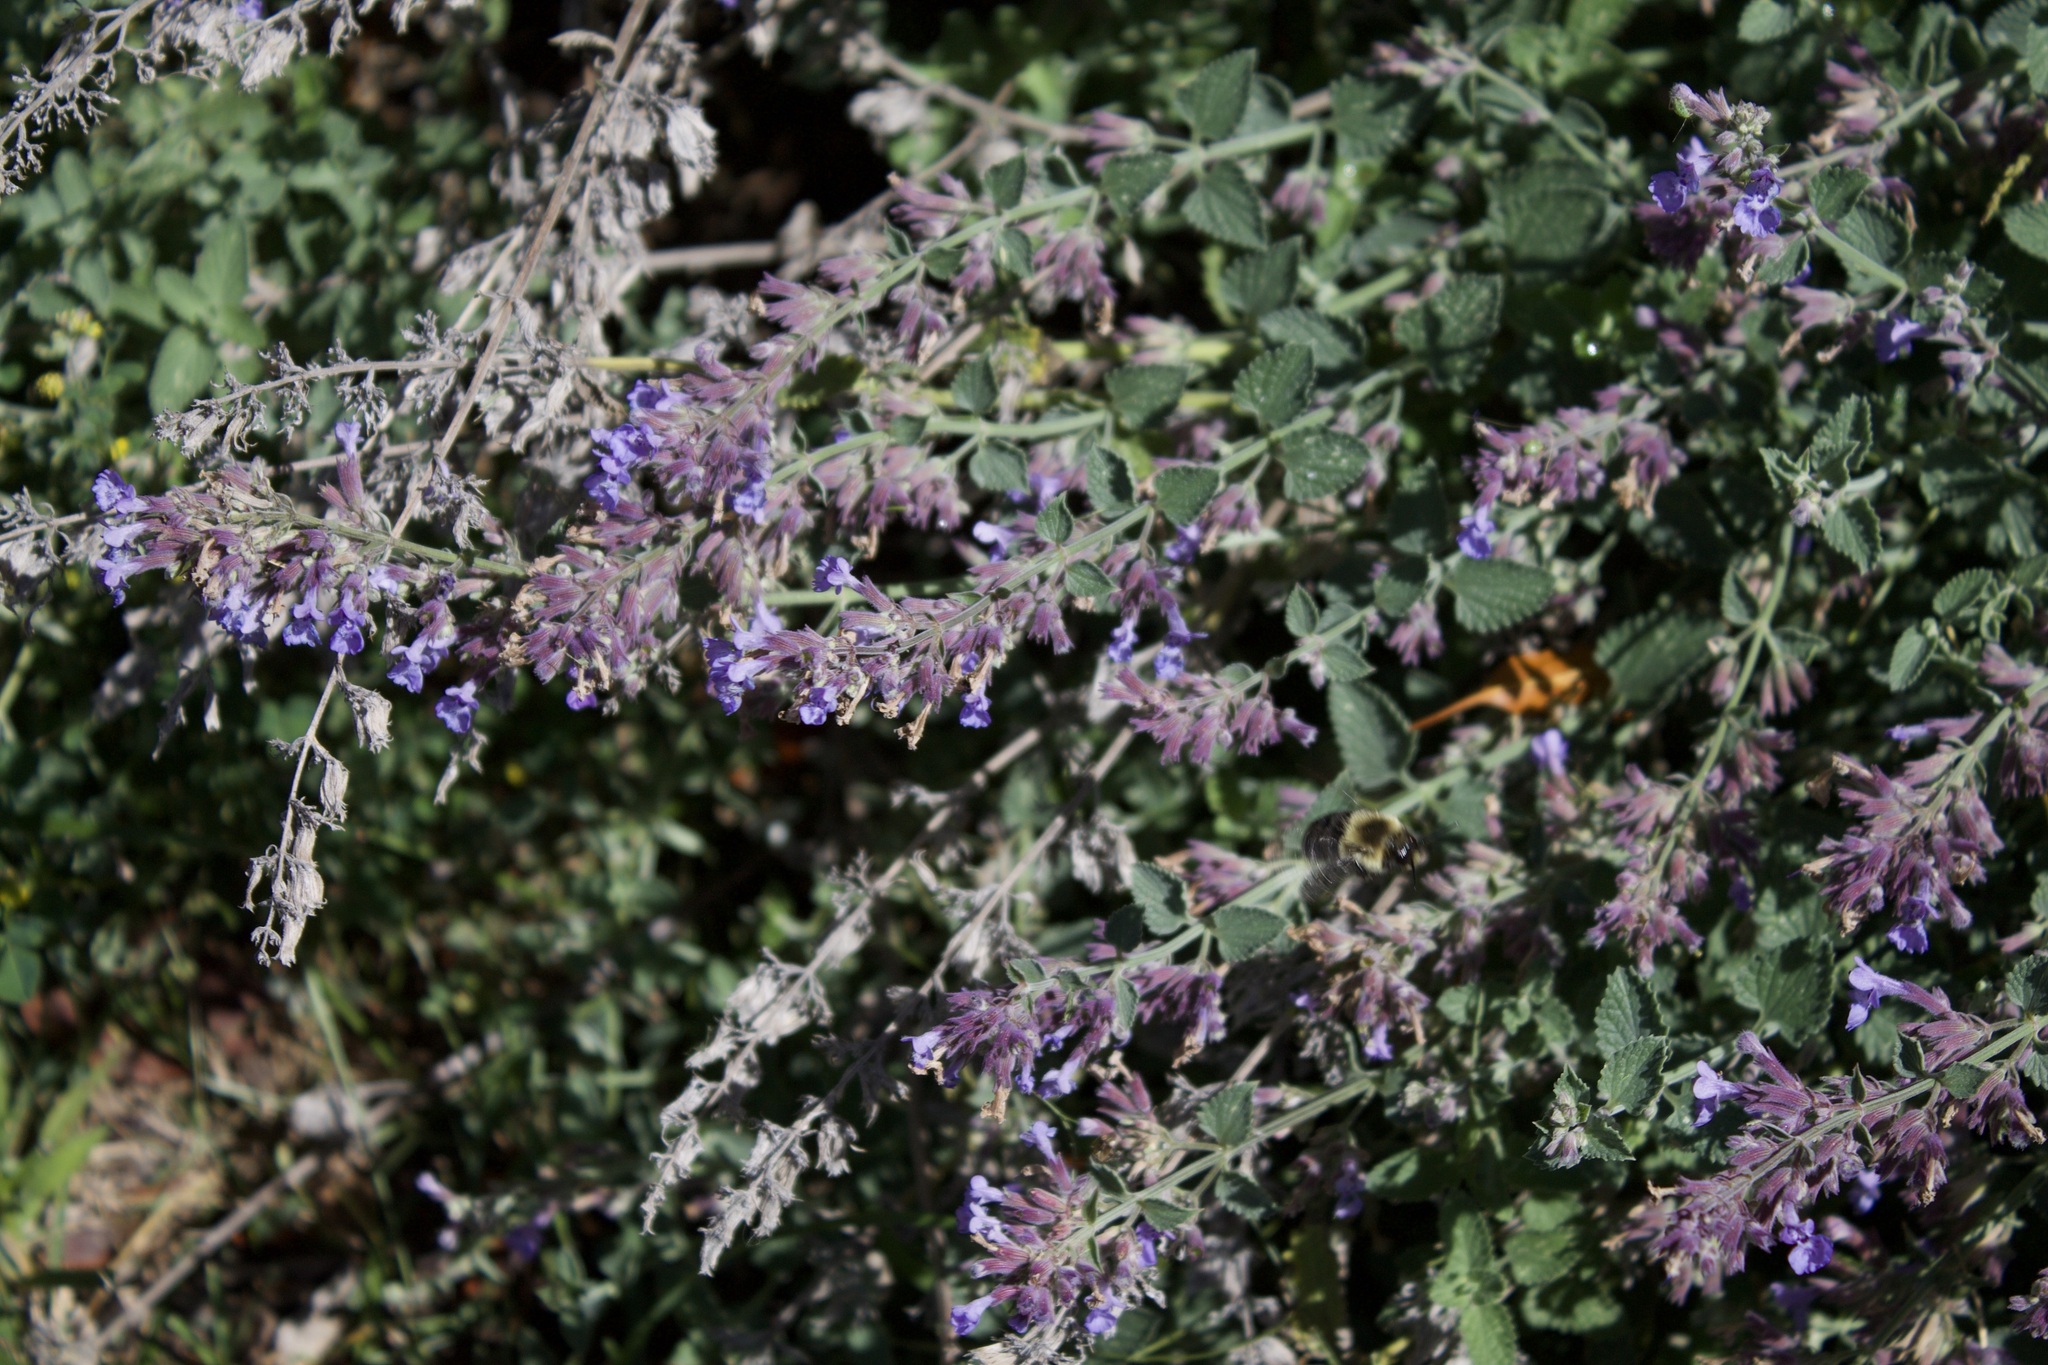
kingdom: Animalia
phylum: Arthropoda
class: Insecta
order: Hymenoptera
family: Apidae
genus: Bombus
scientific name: Bombus impatiens
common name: Common eastern bumble bee
